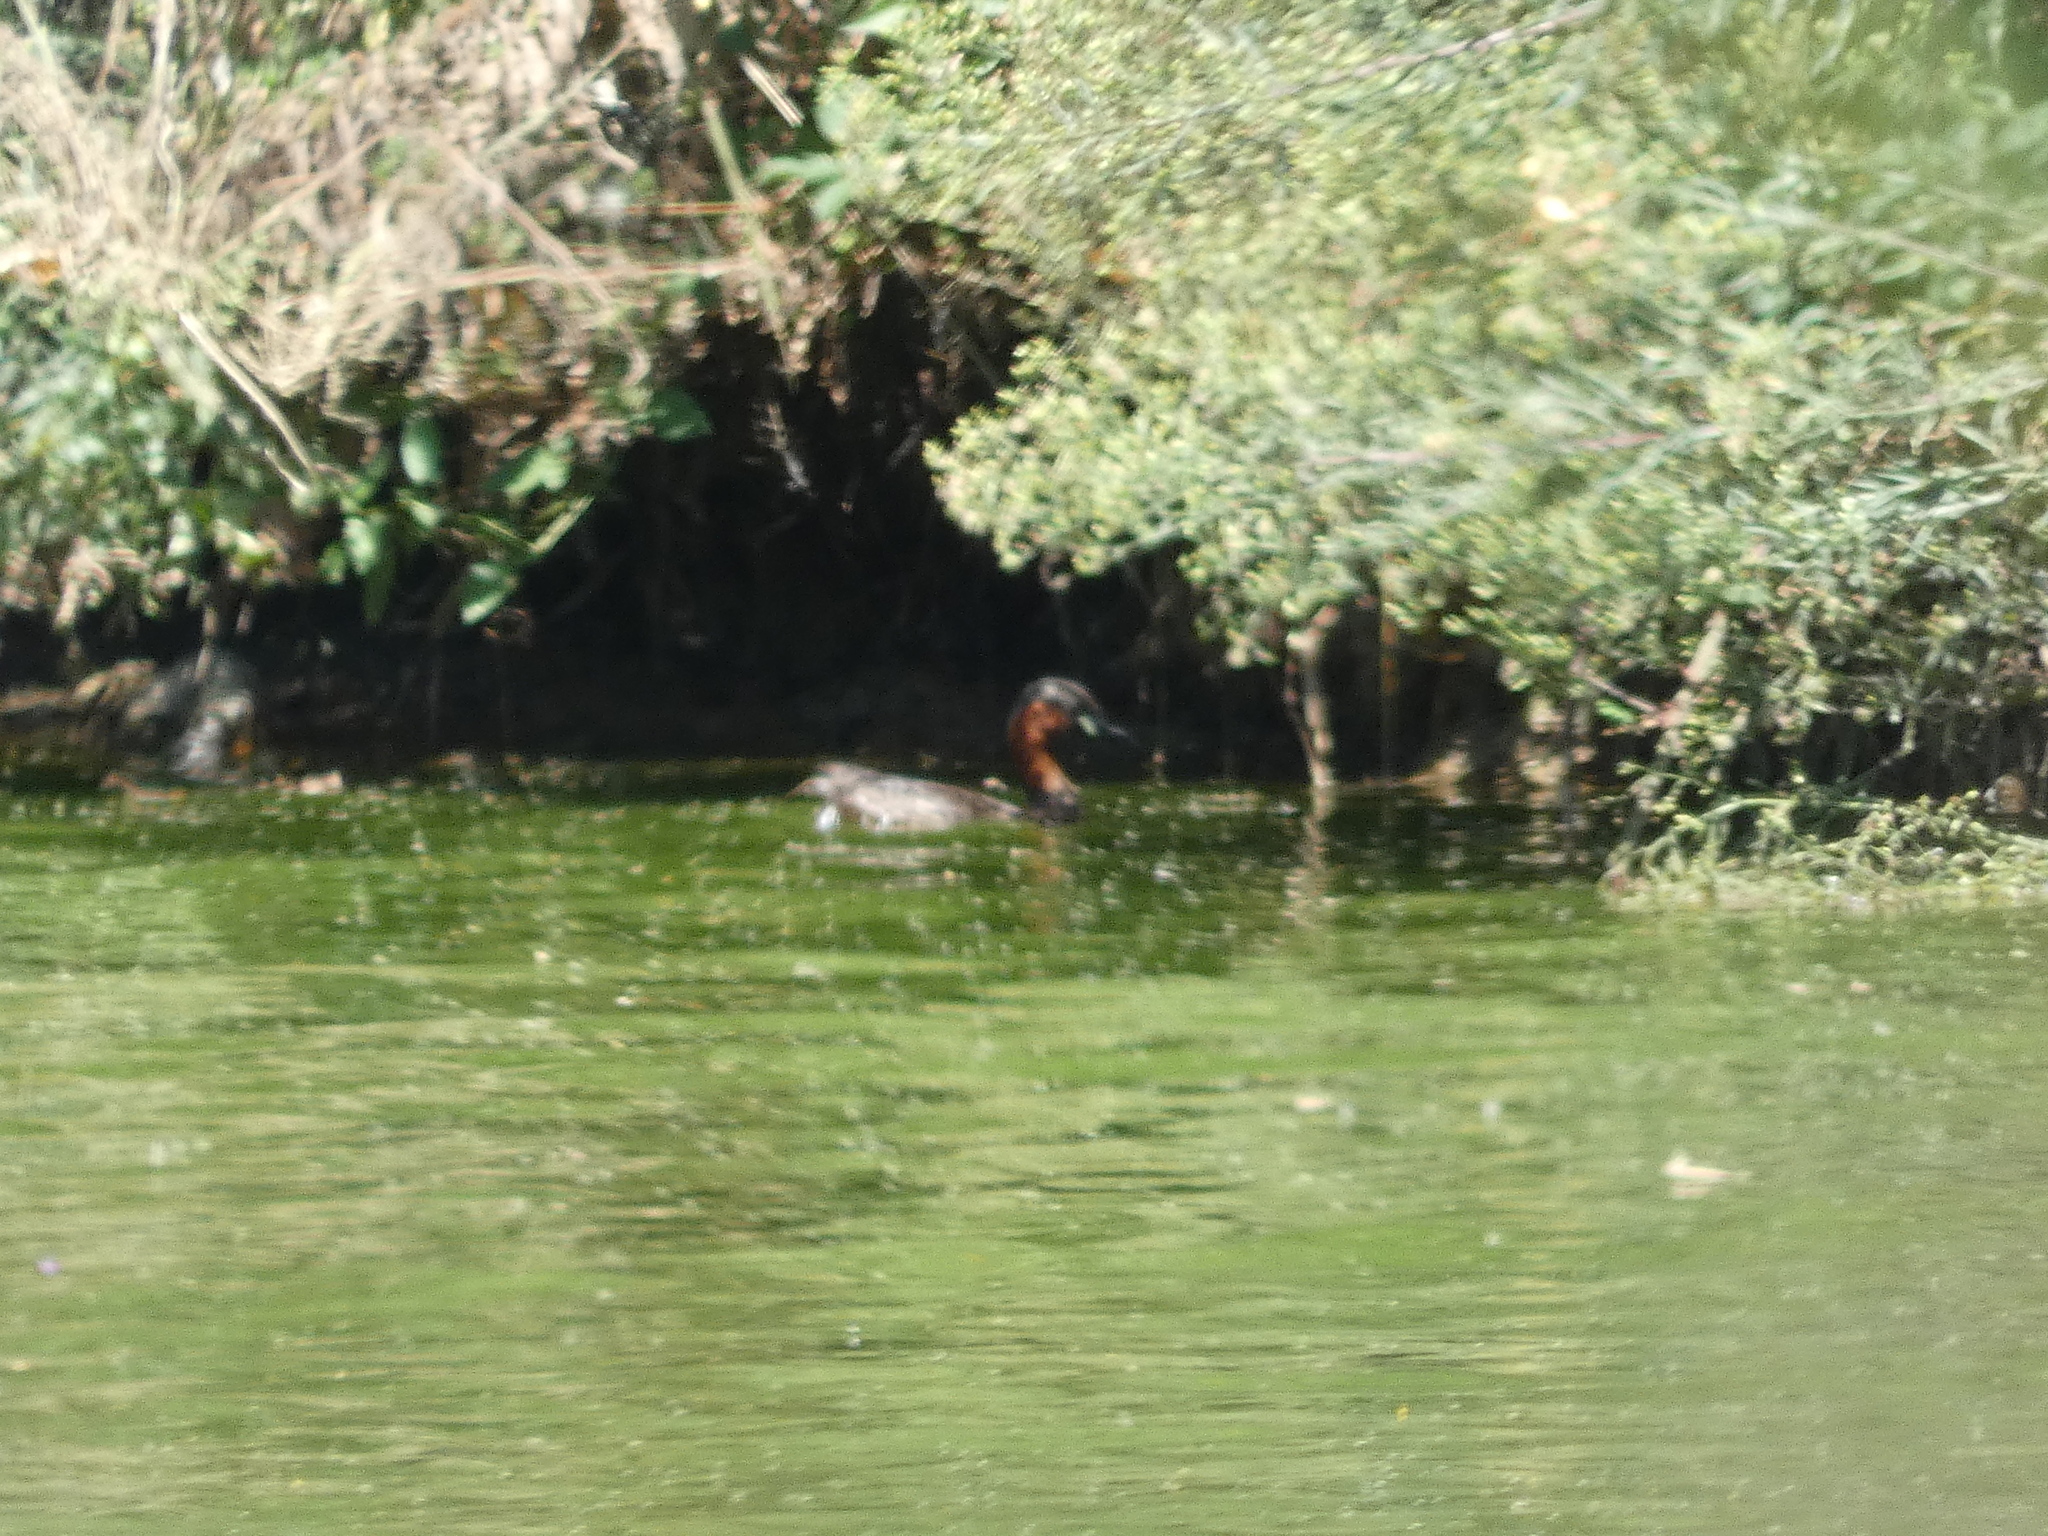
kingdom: Animalia
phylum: Chordata
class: Aves
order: Podicipediformes
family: Podicipedidae
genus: Tachybaptus
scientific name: Tachybaptus ruficollis
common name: Little grebe
